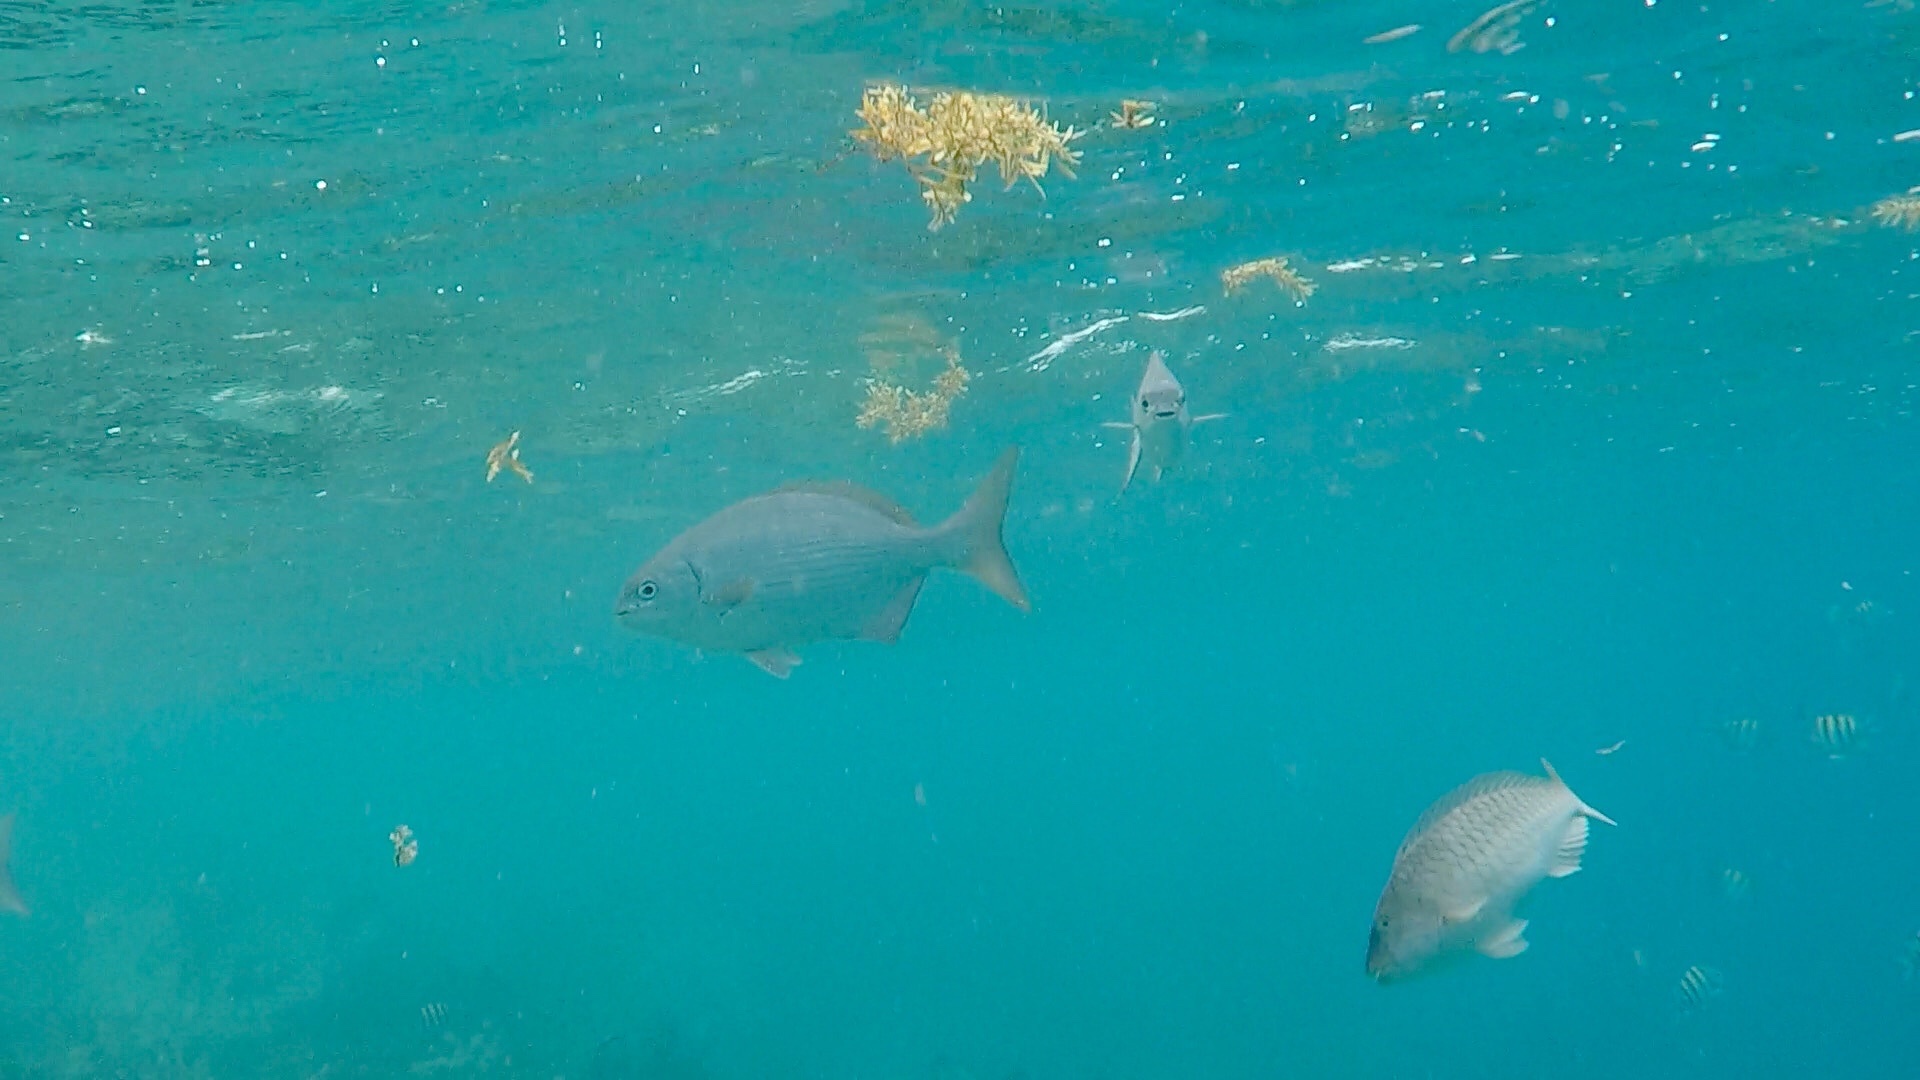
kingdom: Animalia
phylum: Chordata
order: Perciformes
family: Kyphosidae
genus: Kyphosus
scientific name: Kyphosus sectatrix
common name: Bermuda chub
